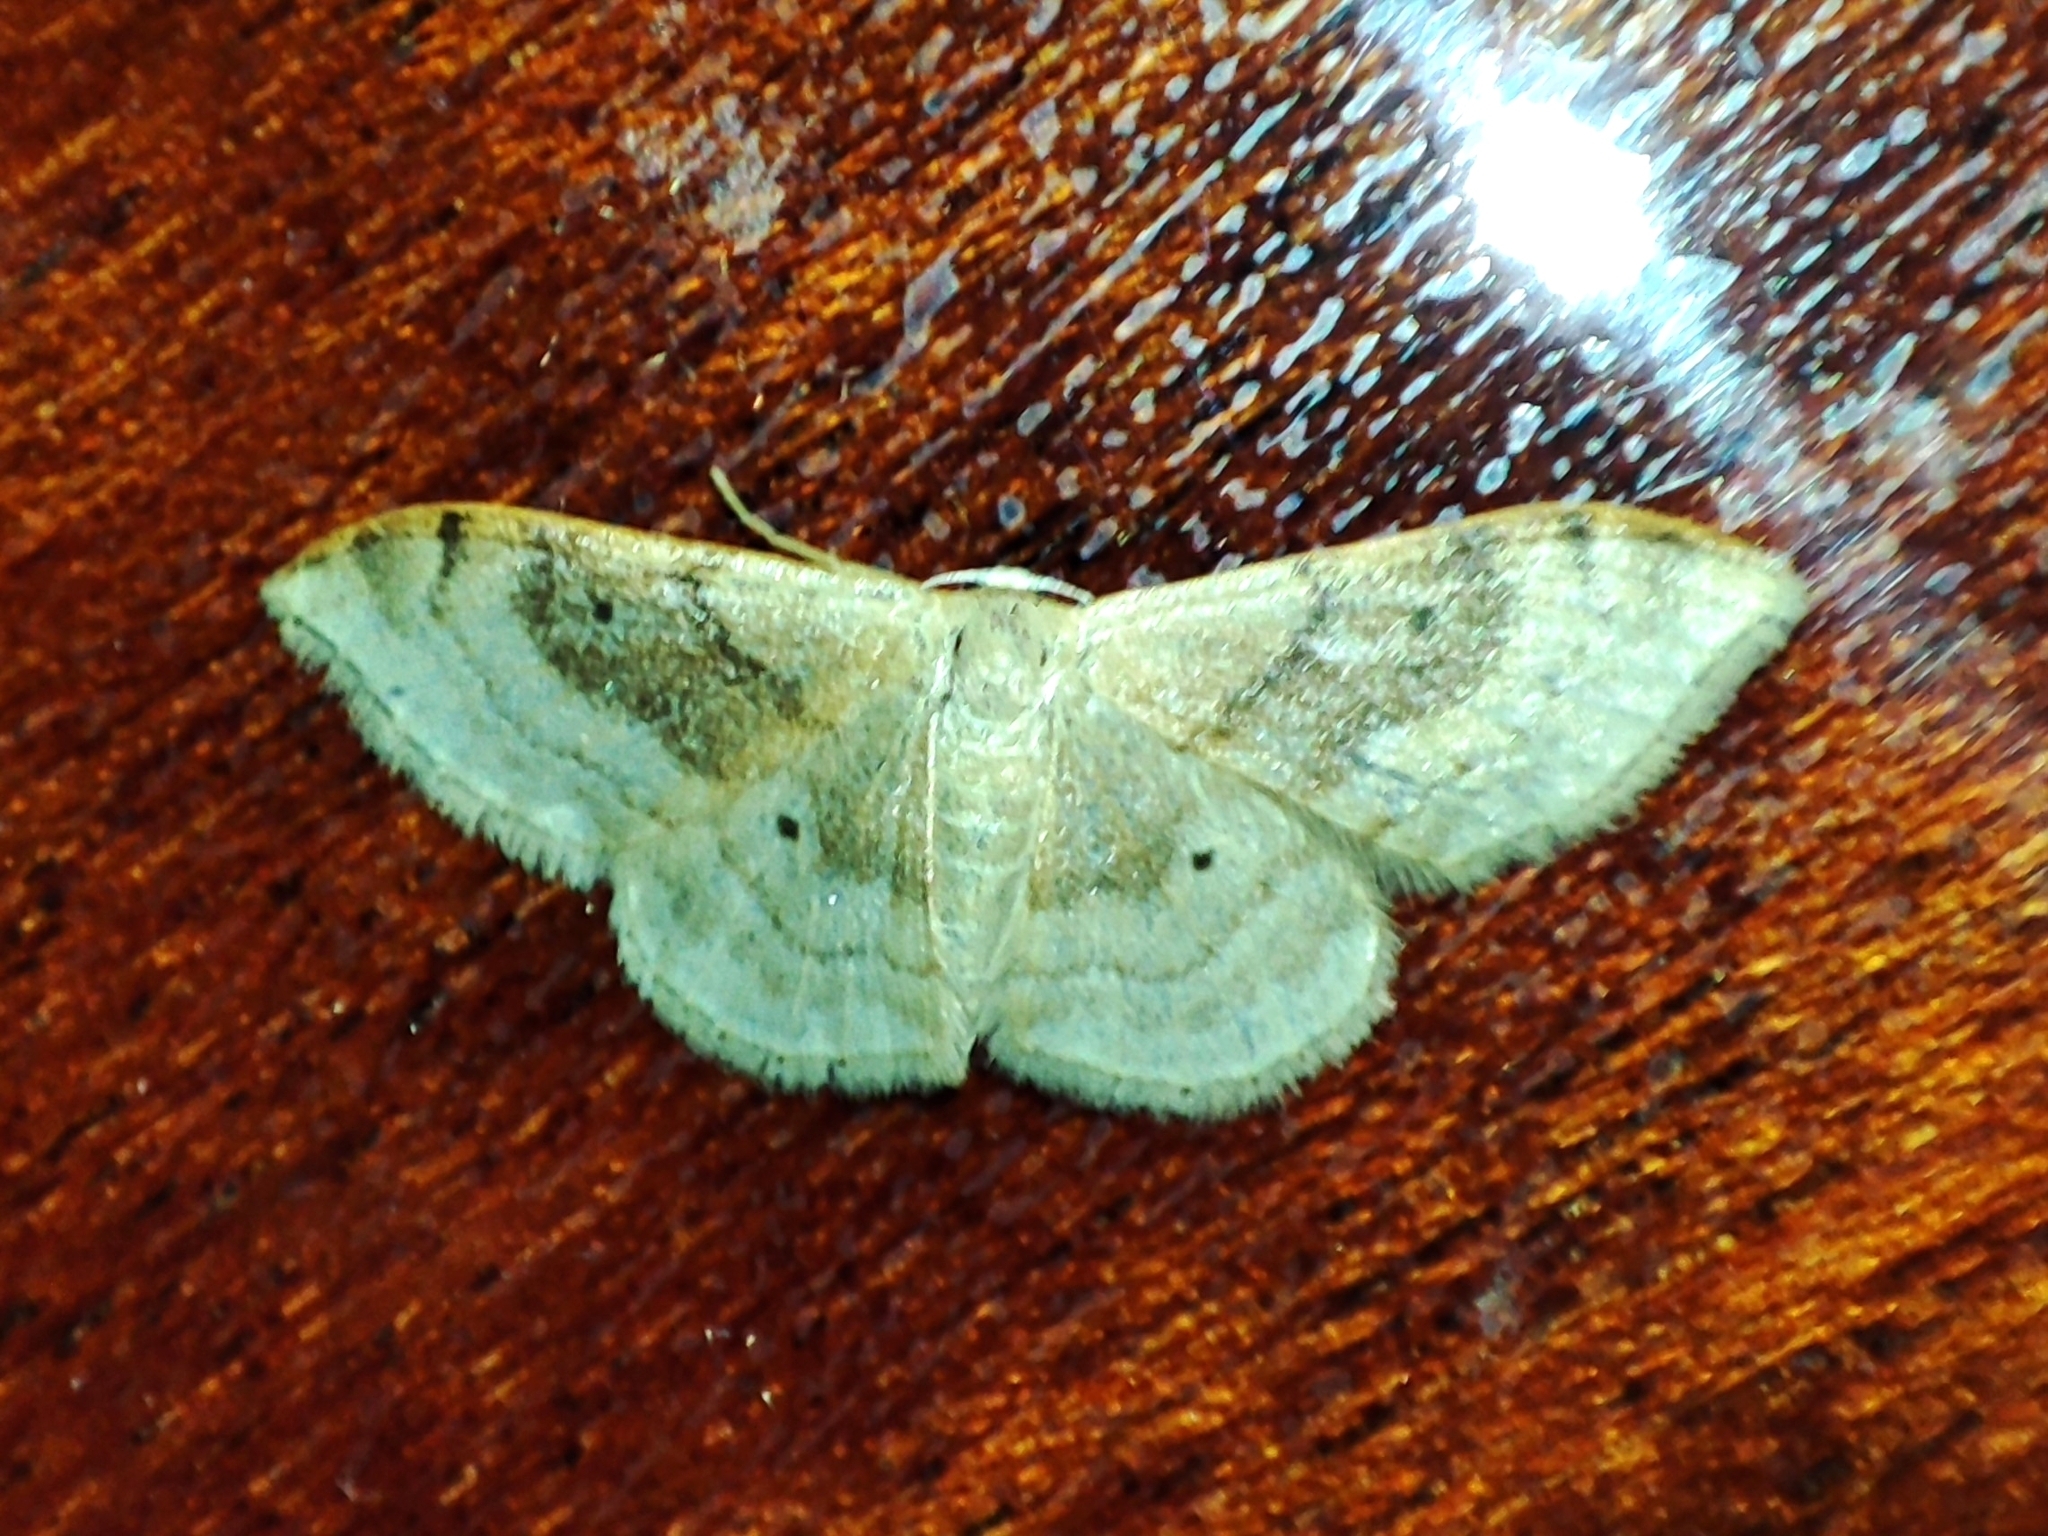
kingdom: Animalia
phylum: Arthropoda
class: Insecta
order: Lepidoptera
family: Geometridae
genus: Idaea
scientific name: Idaea degeneraria
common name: Portland ribbon wave
